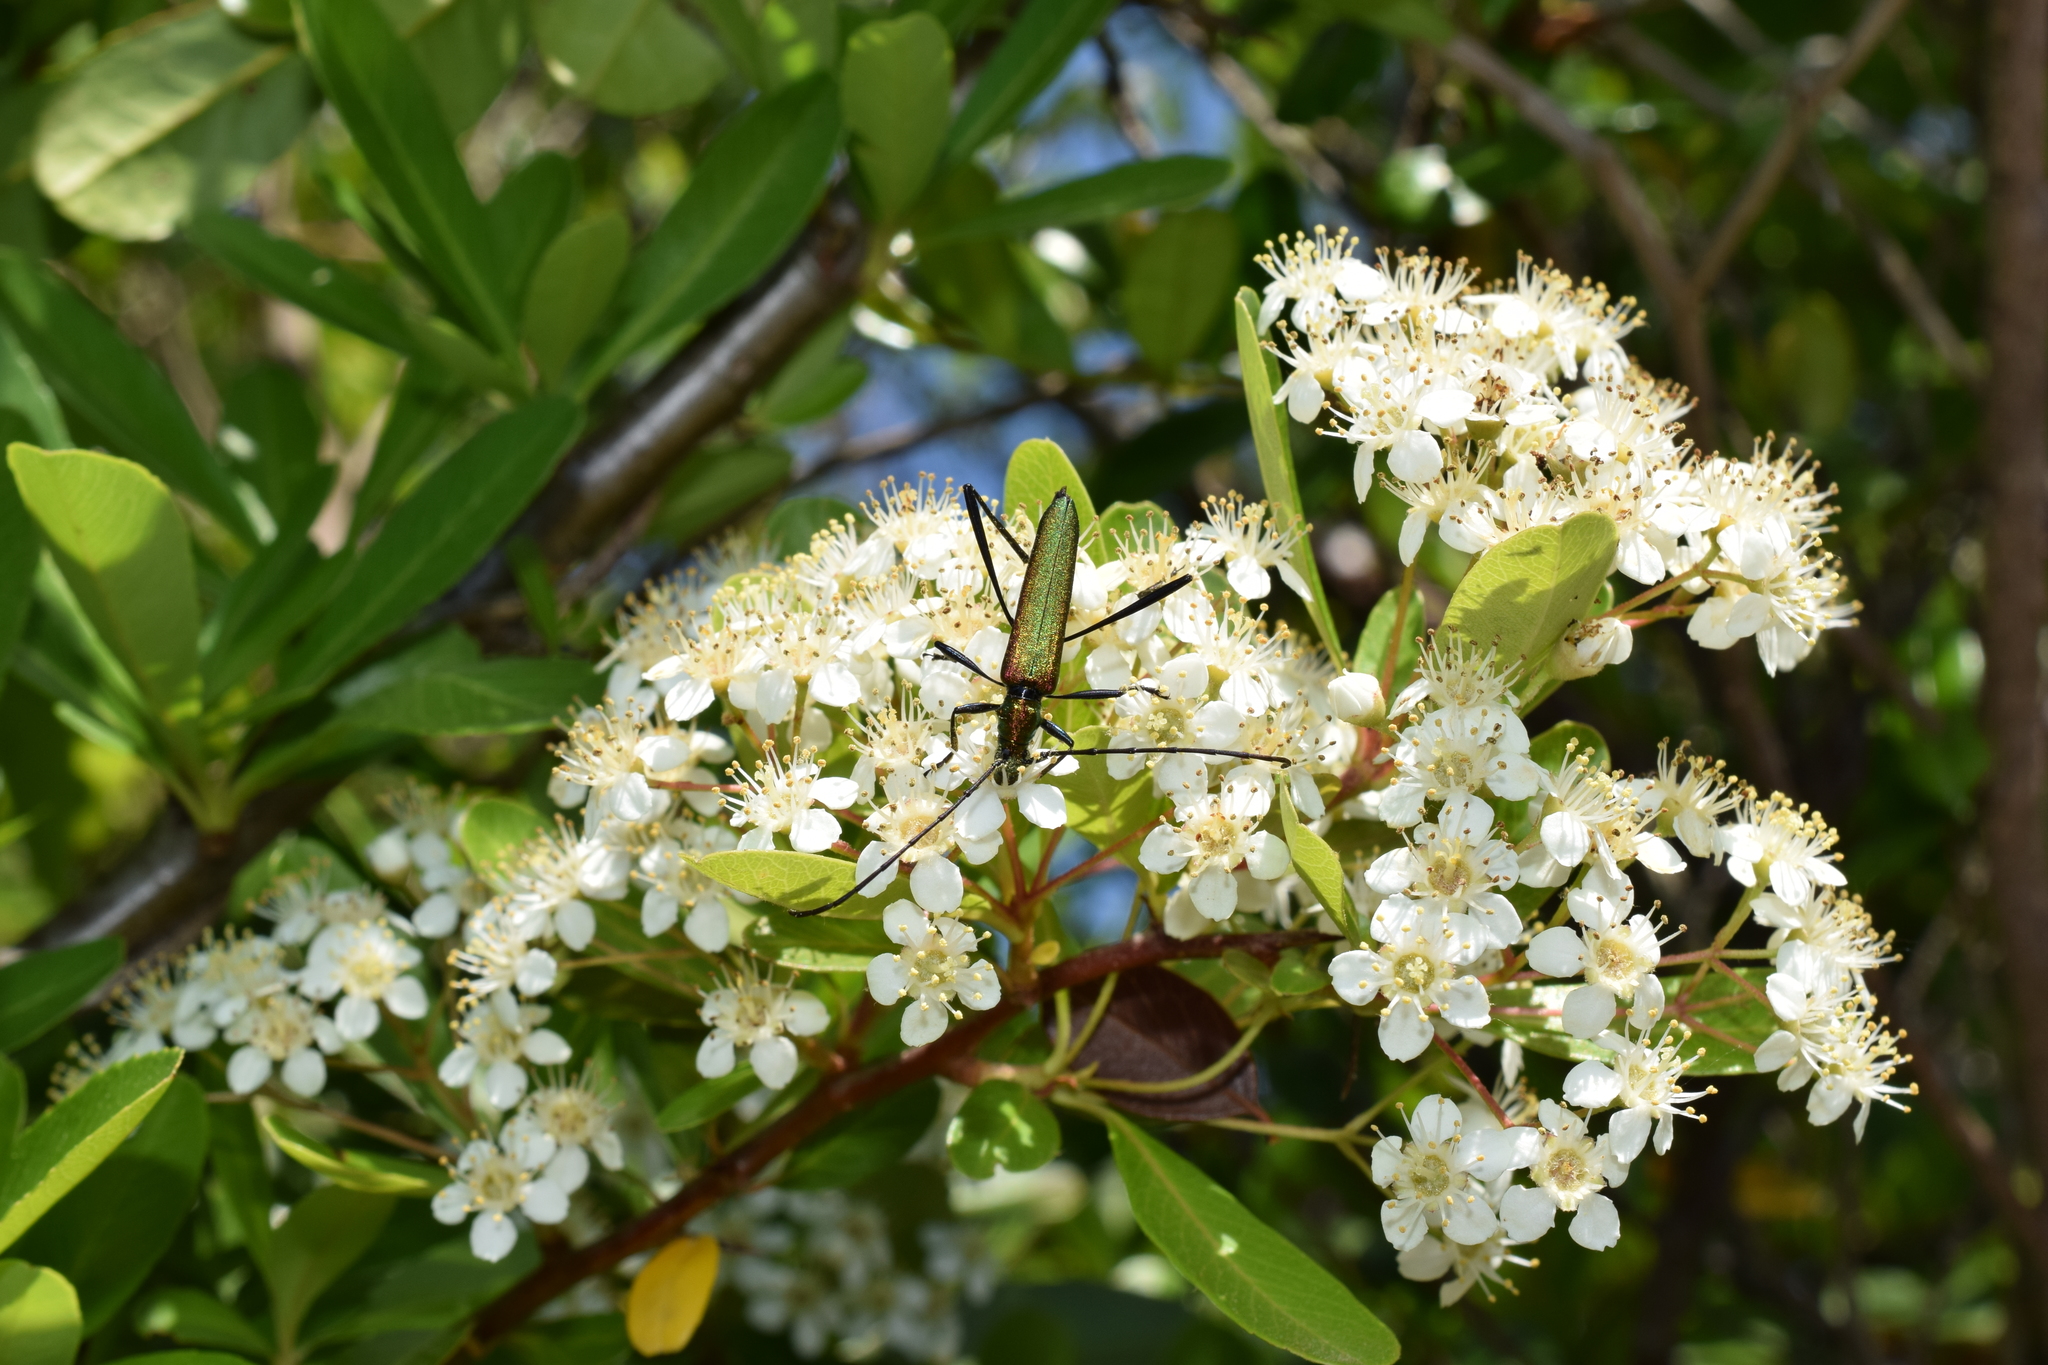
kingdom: Animalia
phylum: Arthropoda
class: Insecta
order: Coleoptera
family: Cerambycidae
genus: Chloridolum
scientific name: Chloridolum viride
